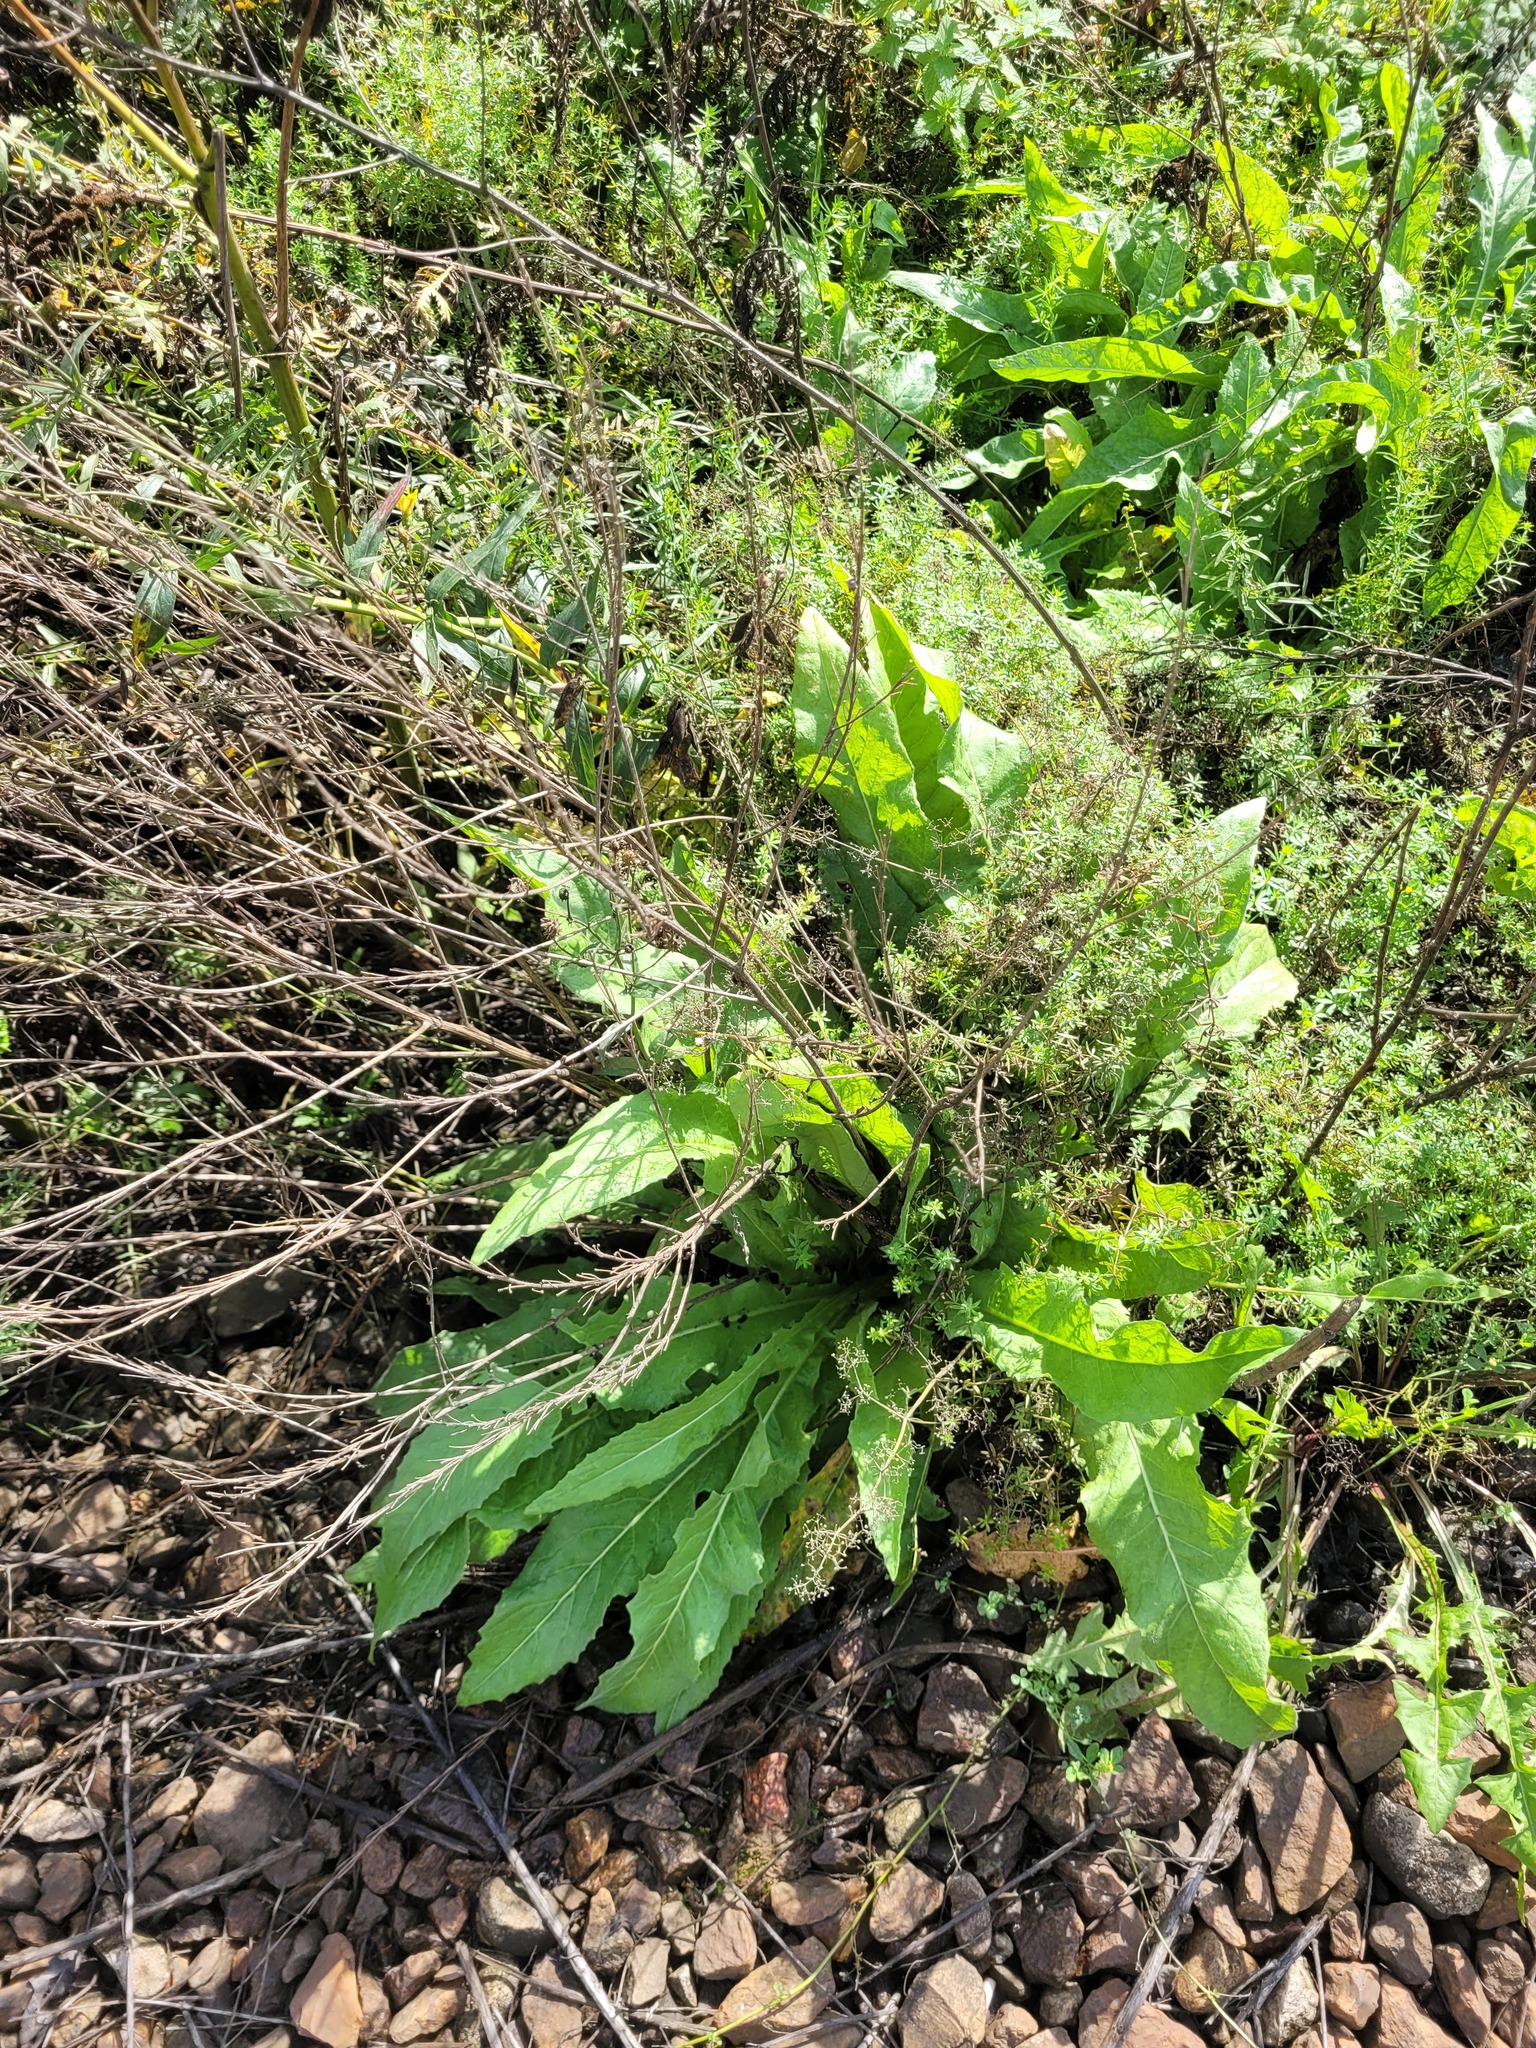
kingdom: Plantae
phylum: Tracheophyta
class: Magnoliopsida
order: Brassicales
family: Brassicaceae
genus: Bunias
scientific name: Bunias orientalis
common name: Warty-cabbage
